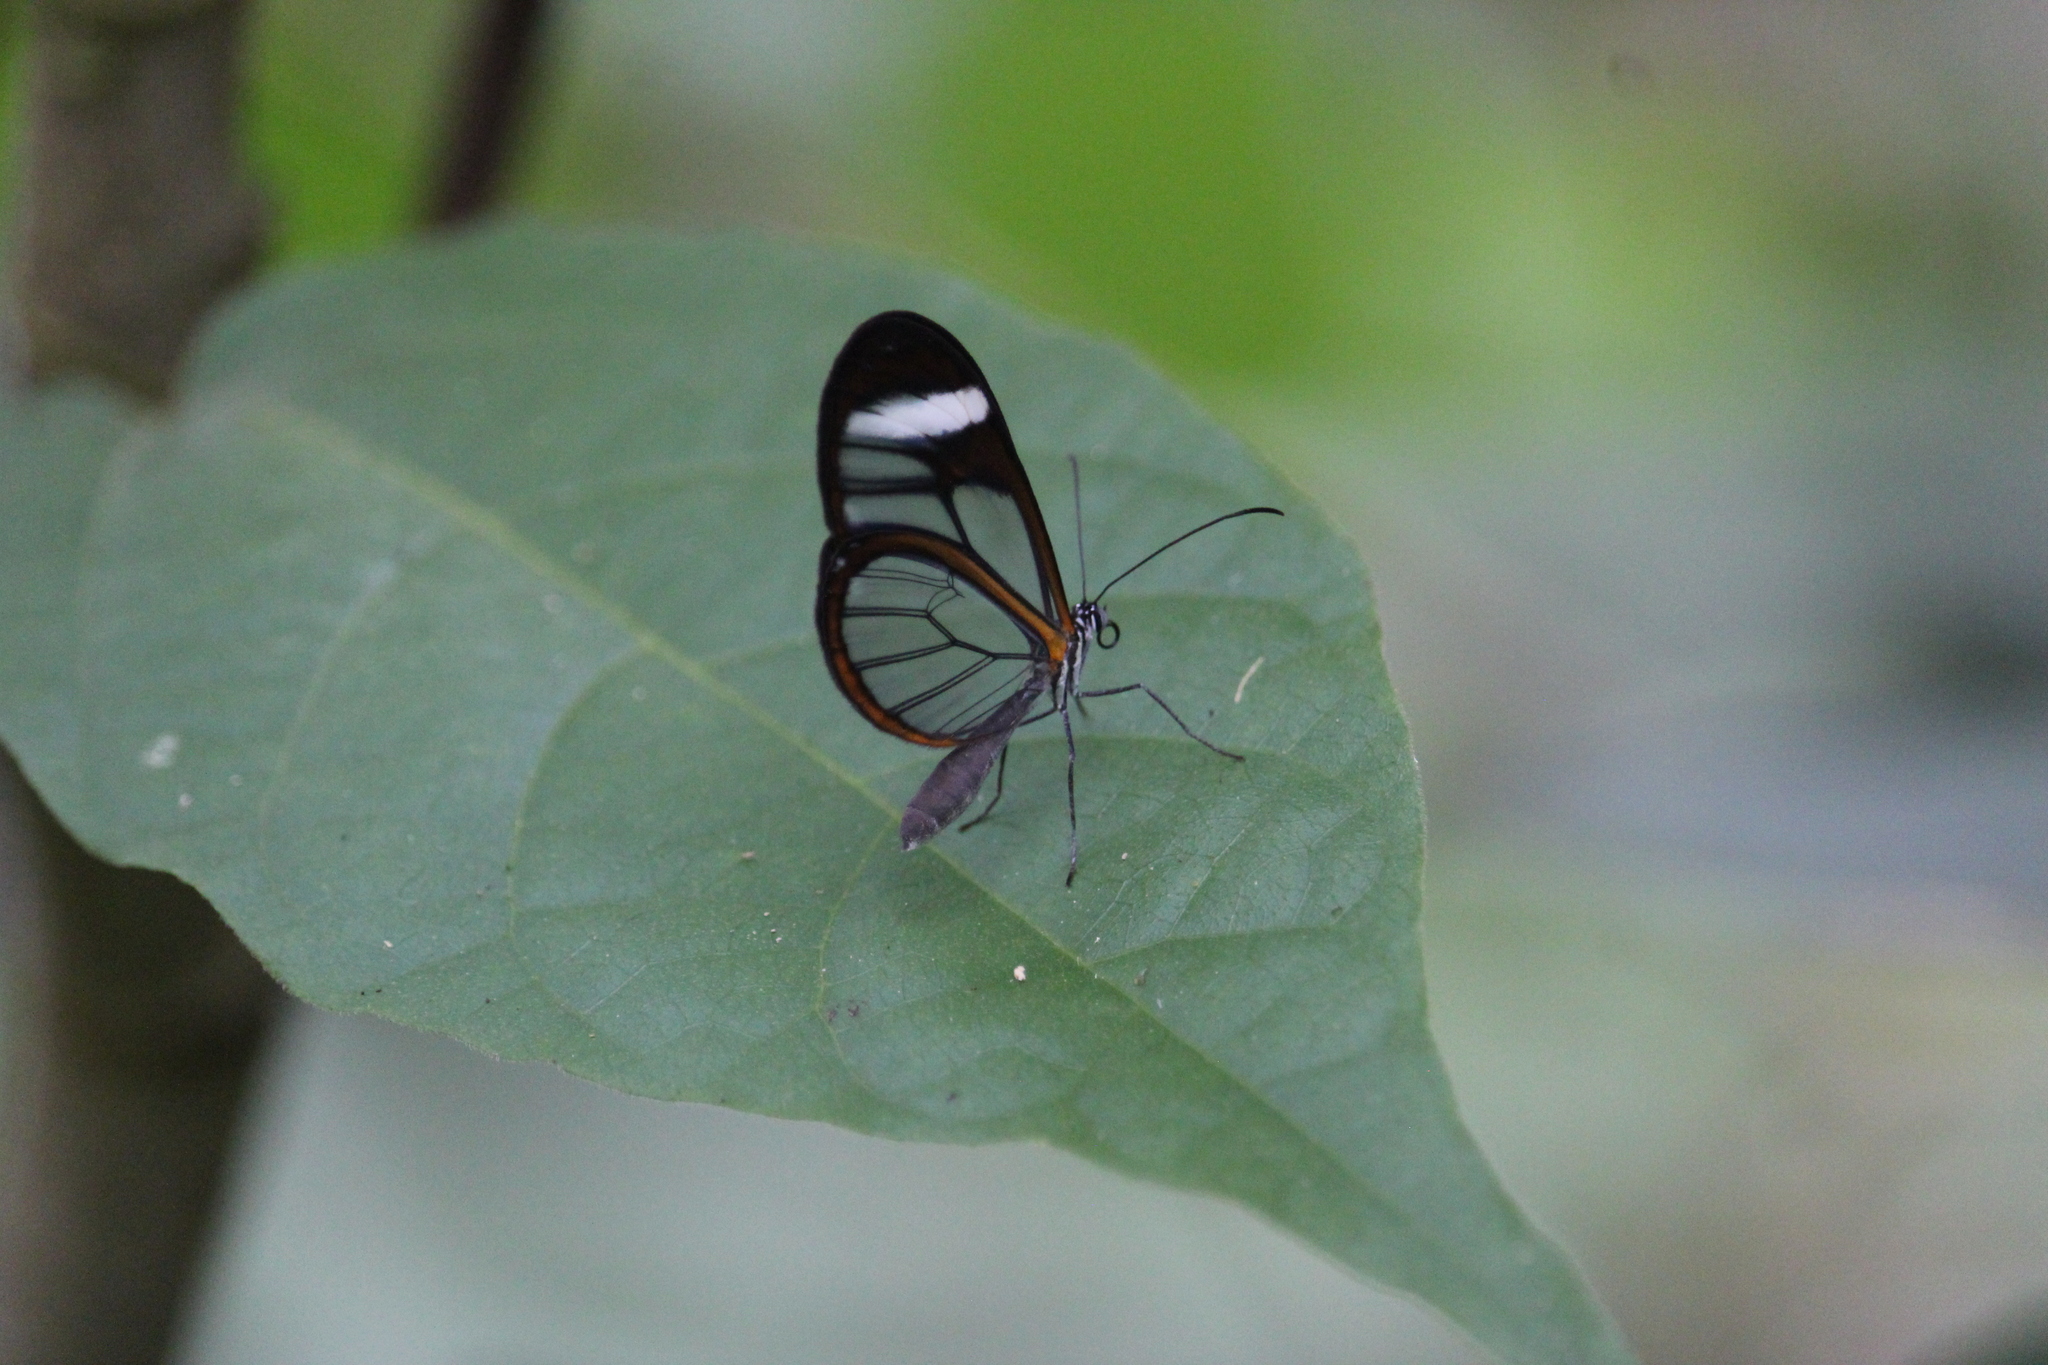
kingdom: Animalia
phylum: Arthropoda
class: Insecta
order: Lepidoptera
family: Nymphalidae
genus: Pteronymia
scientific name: Pteronymia cotytto
